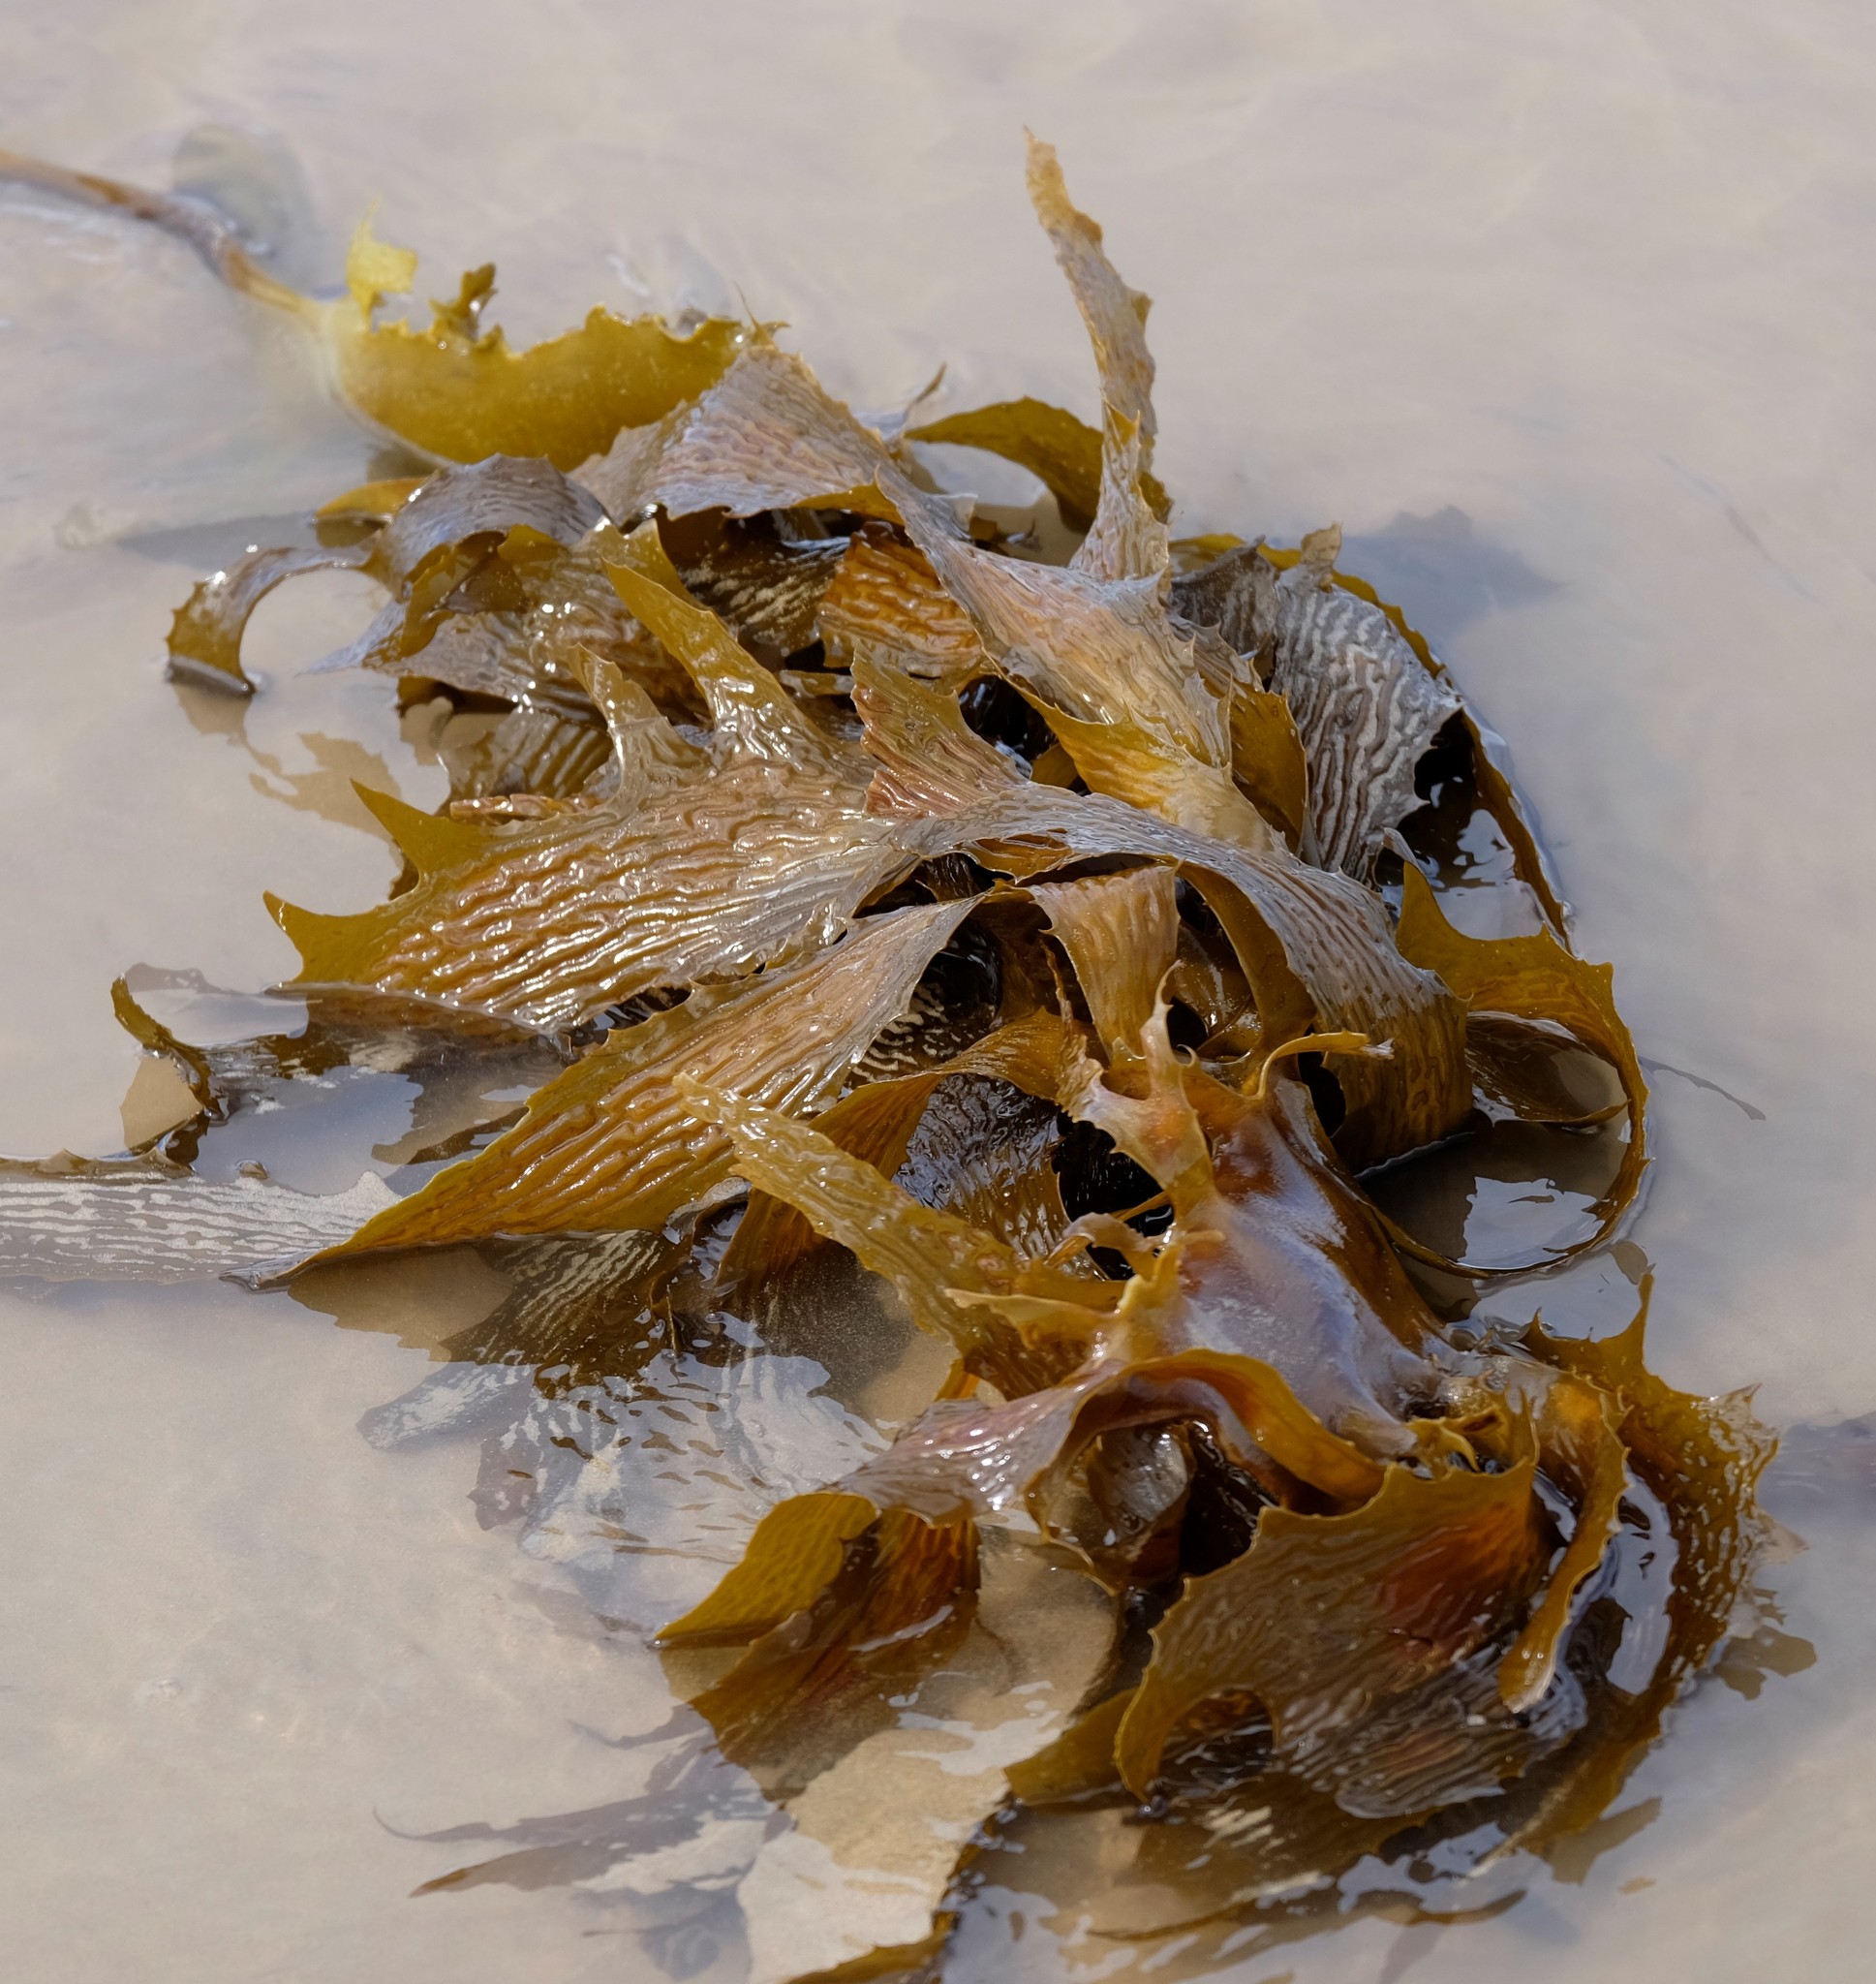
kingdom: Chromista
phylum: Ochrophyta
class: Phaeophyceae
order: Laminariales
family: Lessoniaceae
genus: Ecklonia
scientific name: Ecklonia radiata
